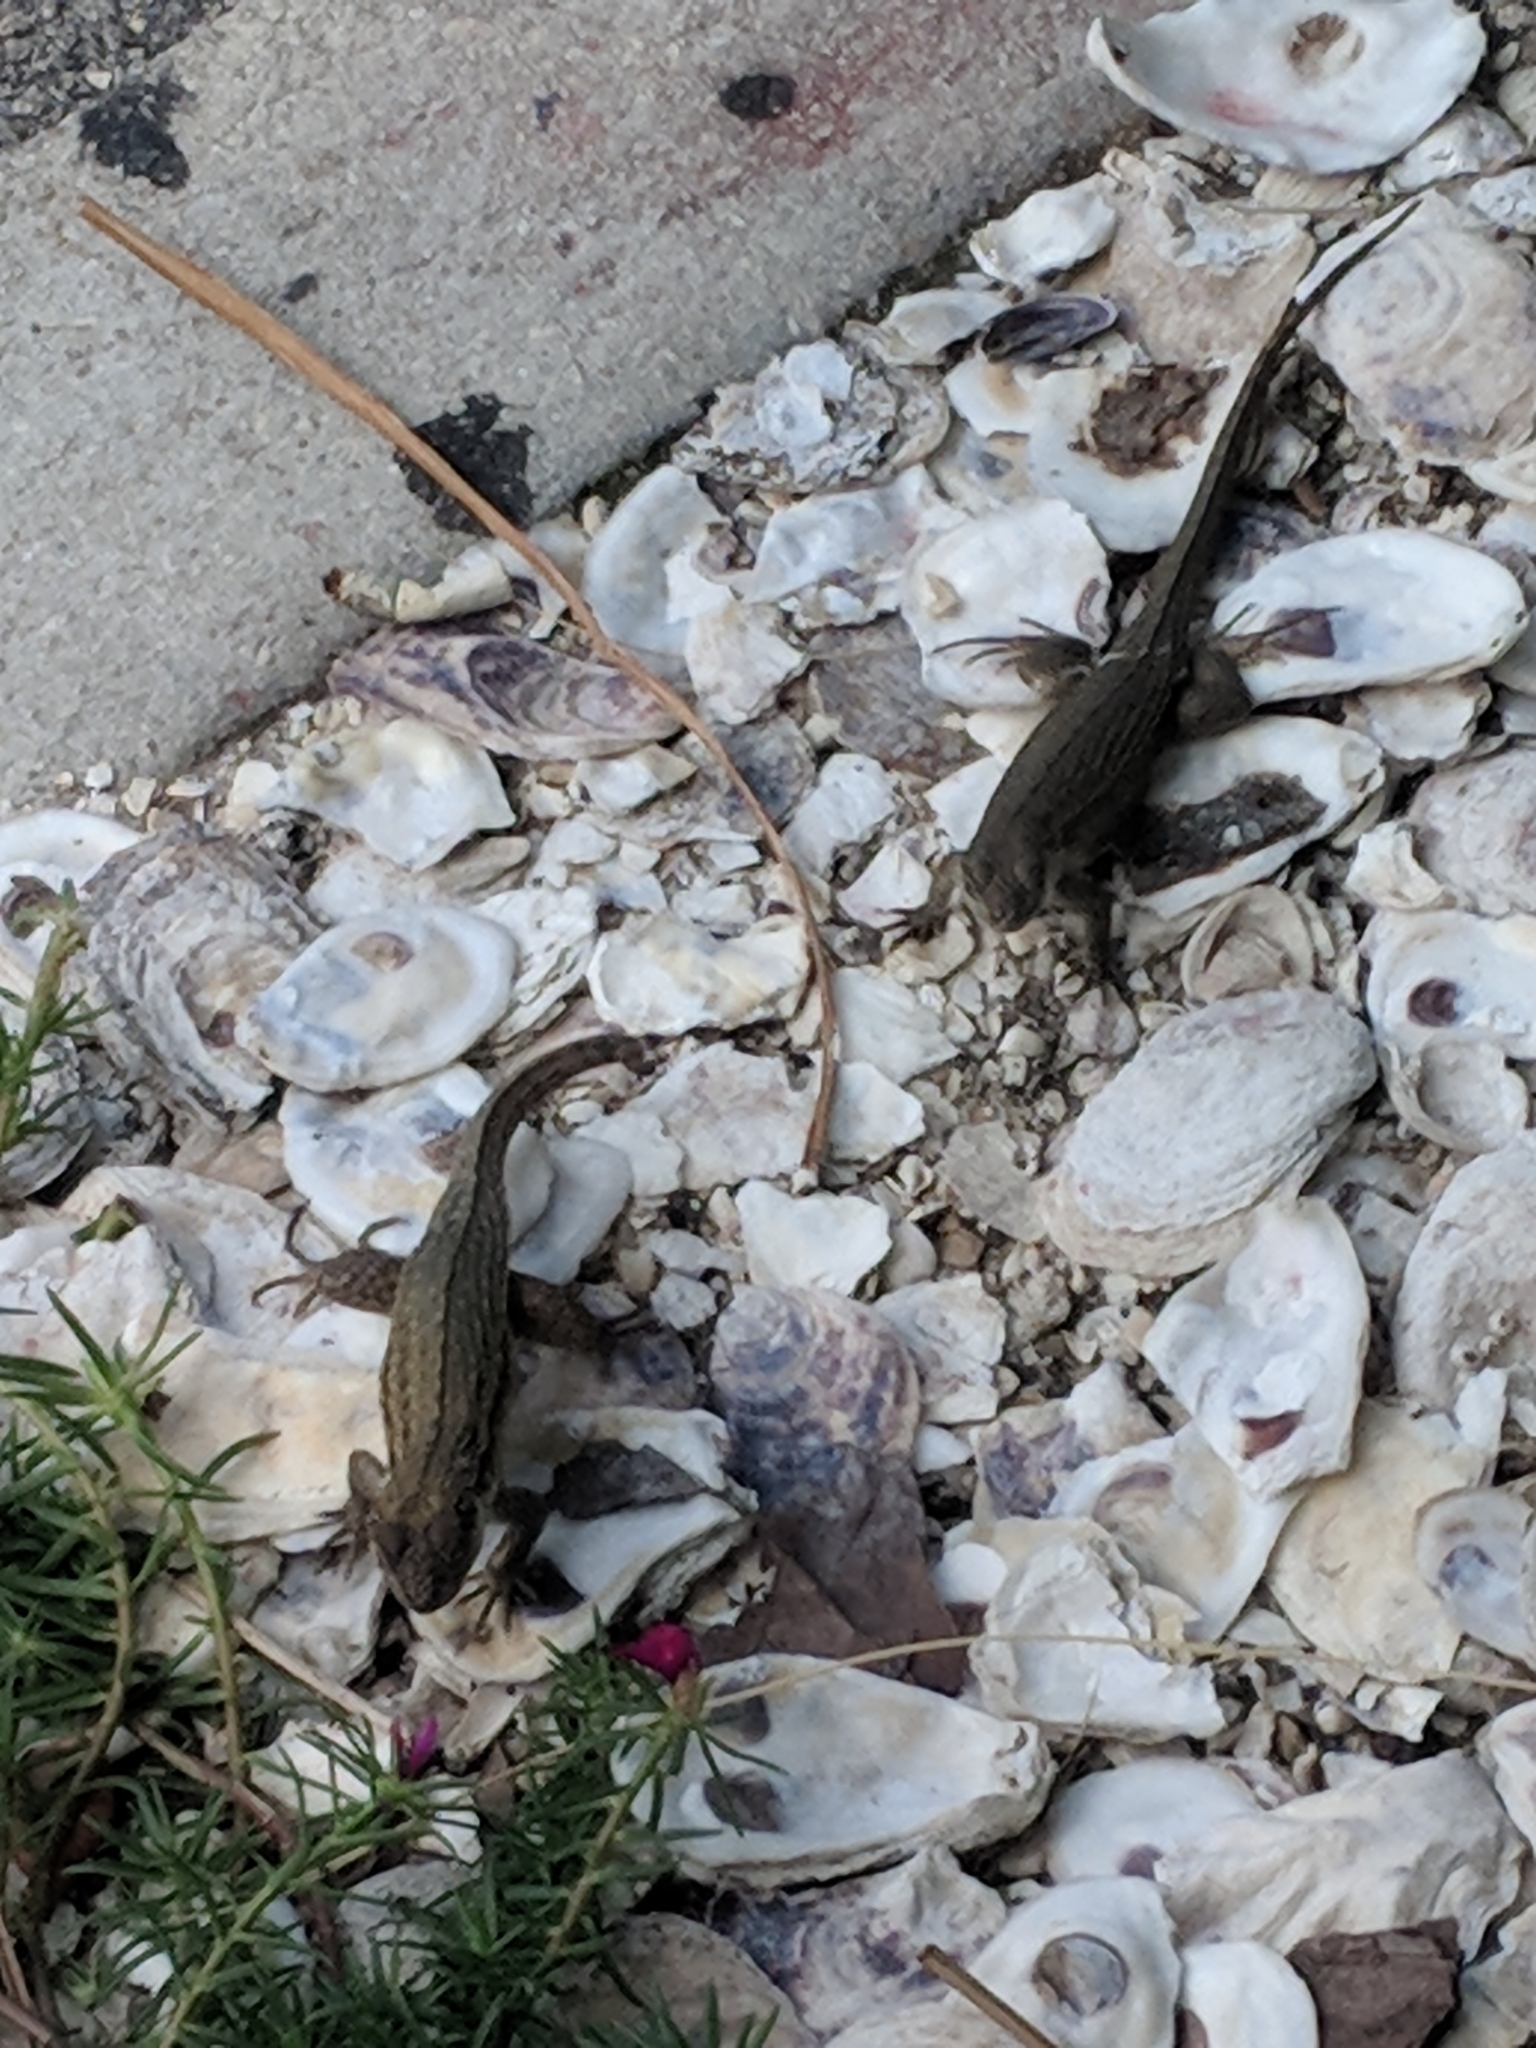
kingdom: Animalia
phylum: Chordata
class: Squamata
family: Leiocephalidae
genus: Leiocephalus
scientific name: Leiocephalus carinatus
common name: Northern curly-tailed lizard
